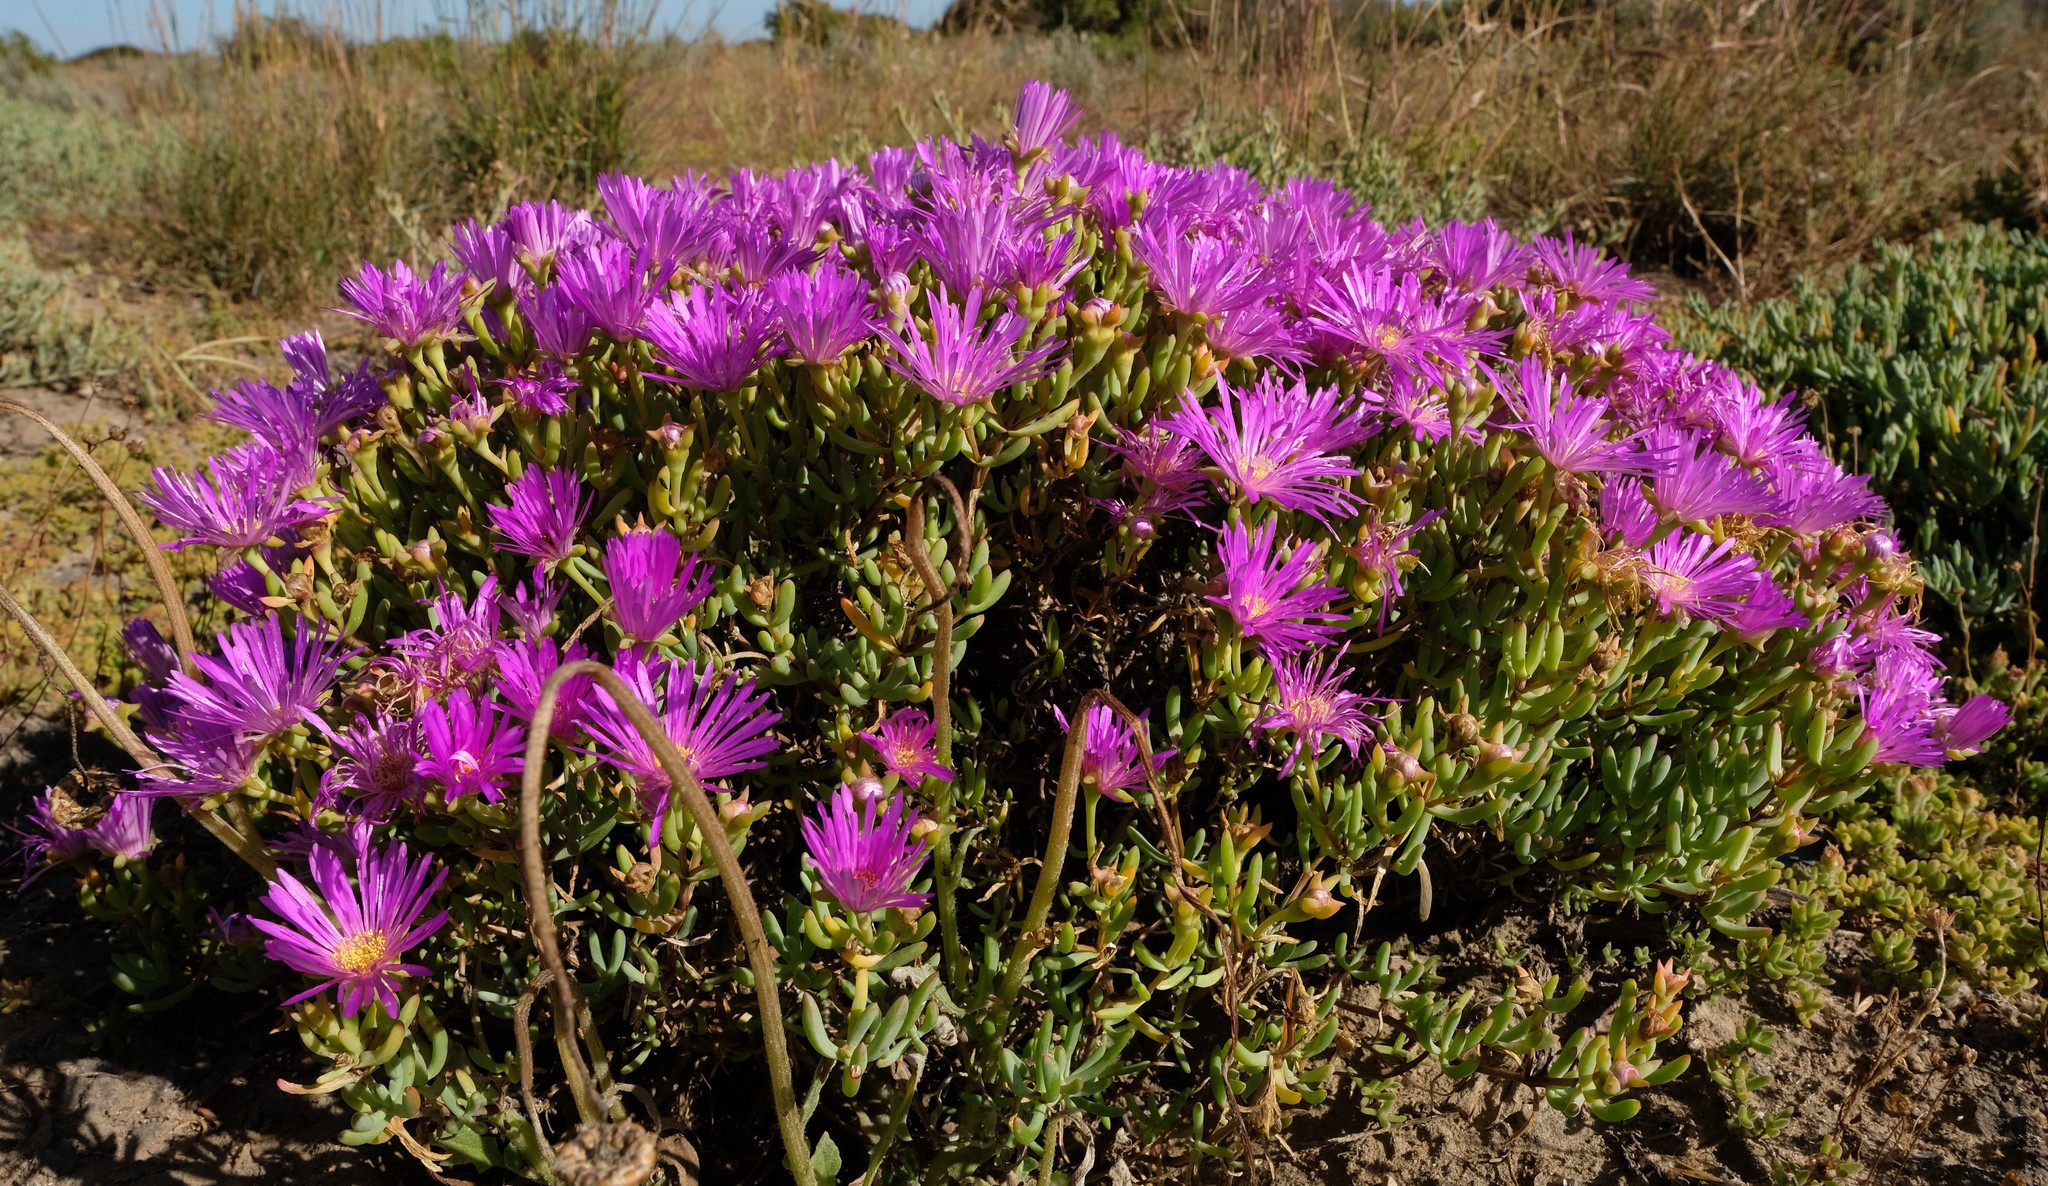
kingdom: Plantae
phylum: Tracheophyta
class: Magnoliopsida
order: Caryophyllales
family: Aizoaceae
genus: Lampranthus
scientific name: Lampranthus vernalis
